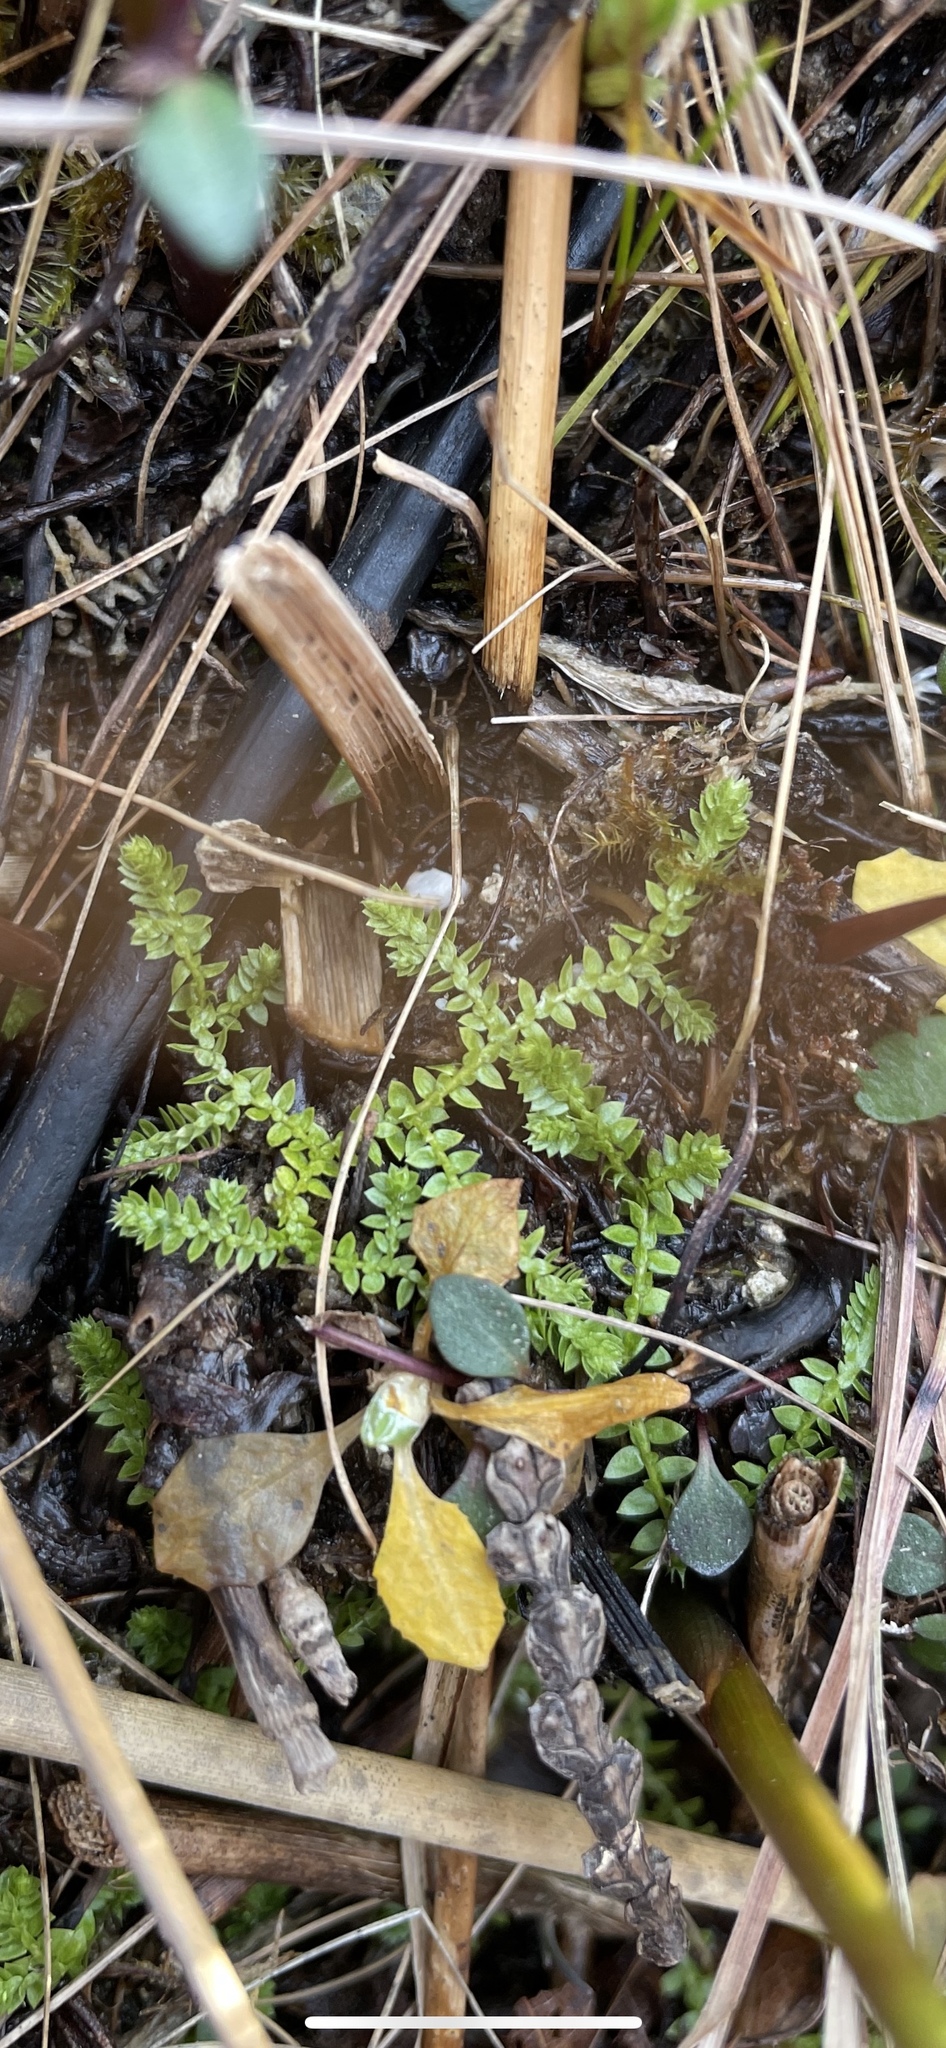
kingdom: Plantae
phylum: Tracheophyta
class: Lycopodiopsida
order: Selaginellales
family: Selaginellaceae
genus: Selaginella
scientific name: Selaginella eclipes
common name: Buck's meadow spikemoss
